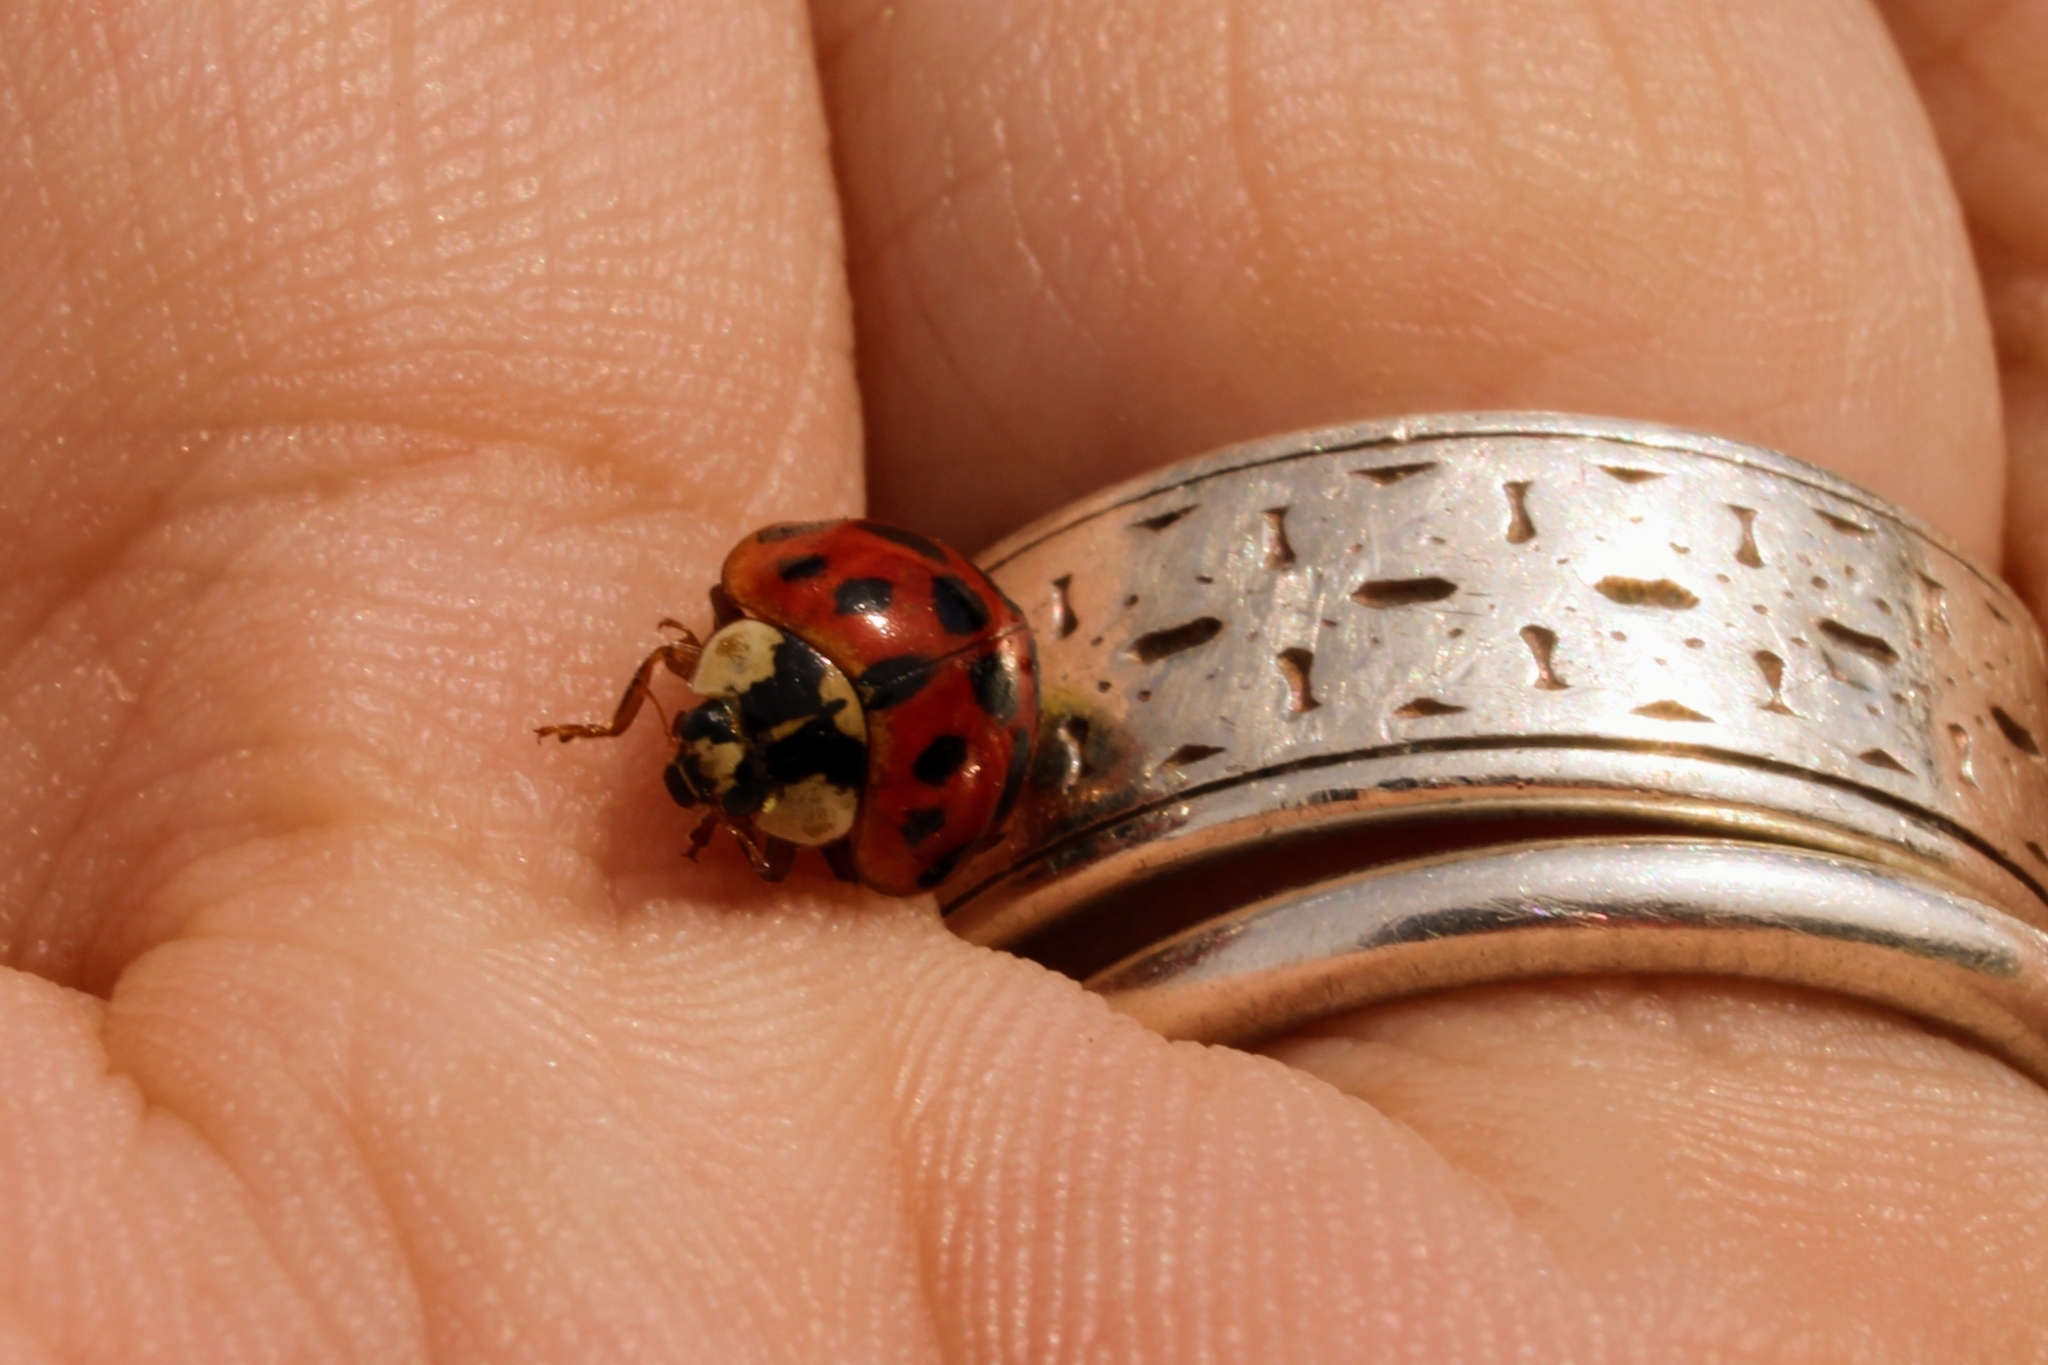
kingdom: Animalia
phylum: Arthropoda
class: Insecta
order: Coleoptera
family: Coccinellidae
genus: Harmonia
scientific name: Harmonia axyridis
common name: Harlequin ladybird
